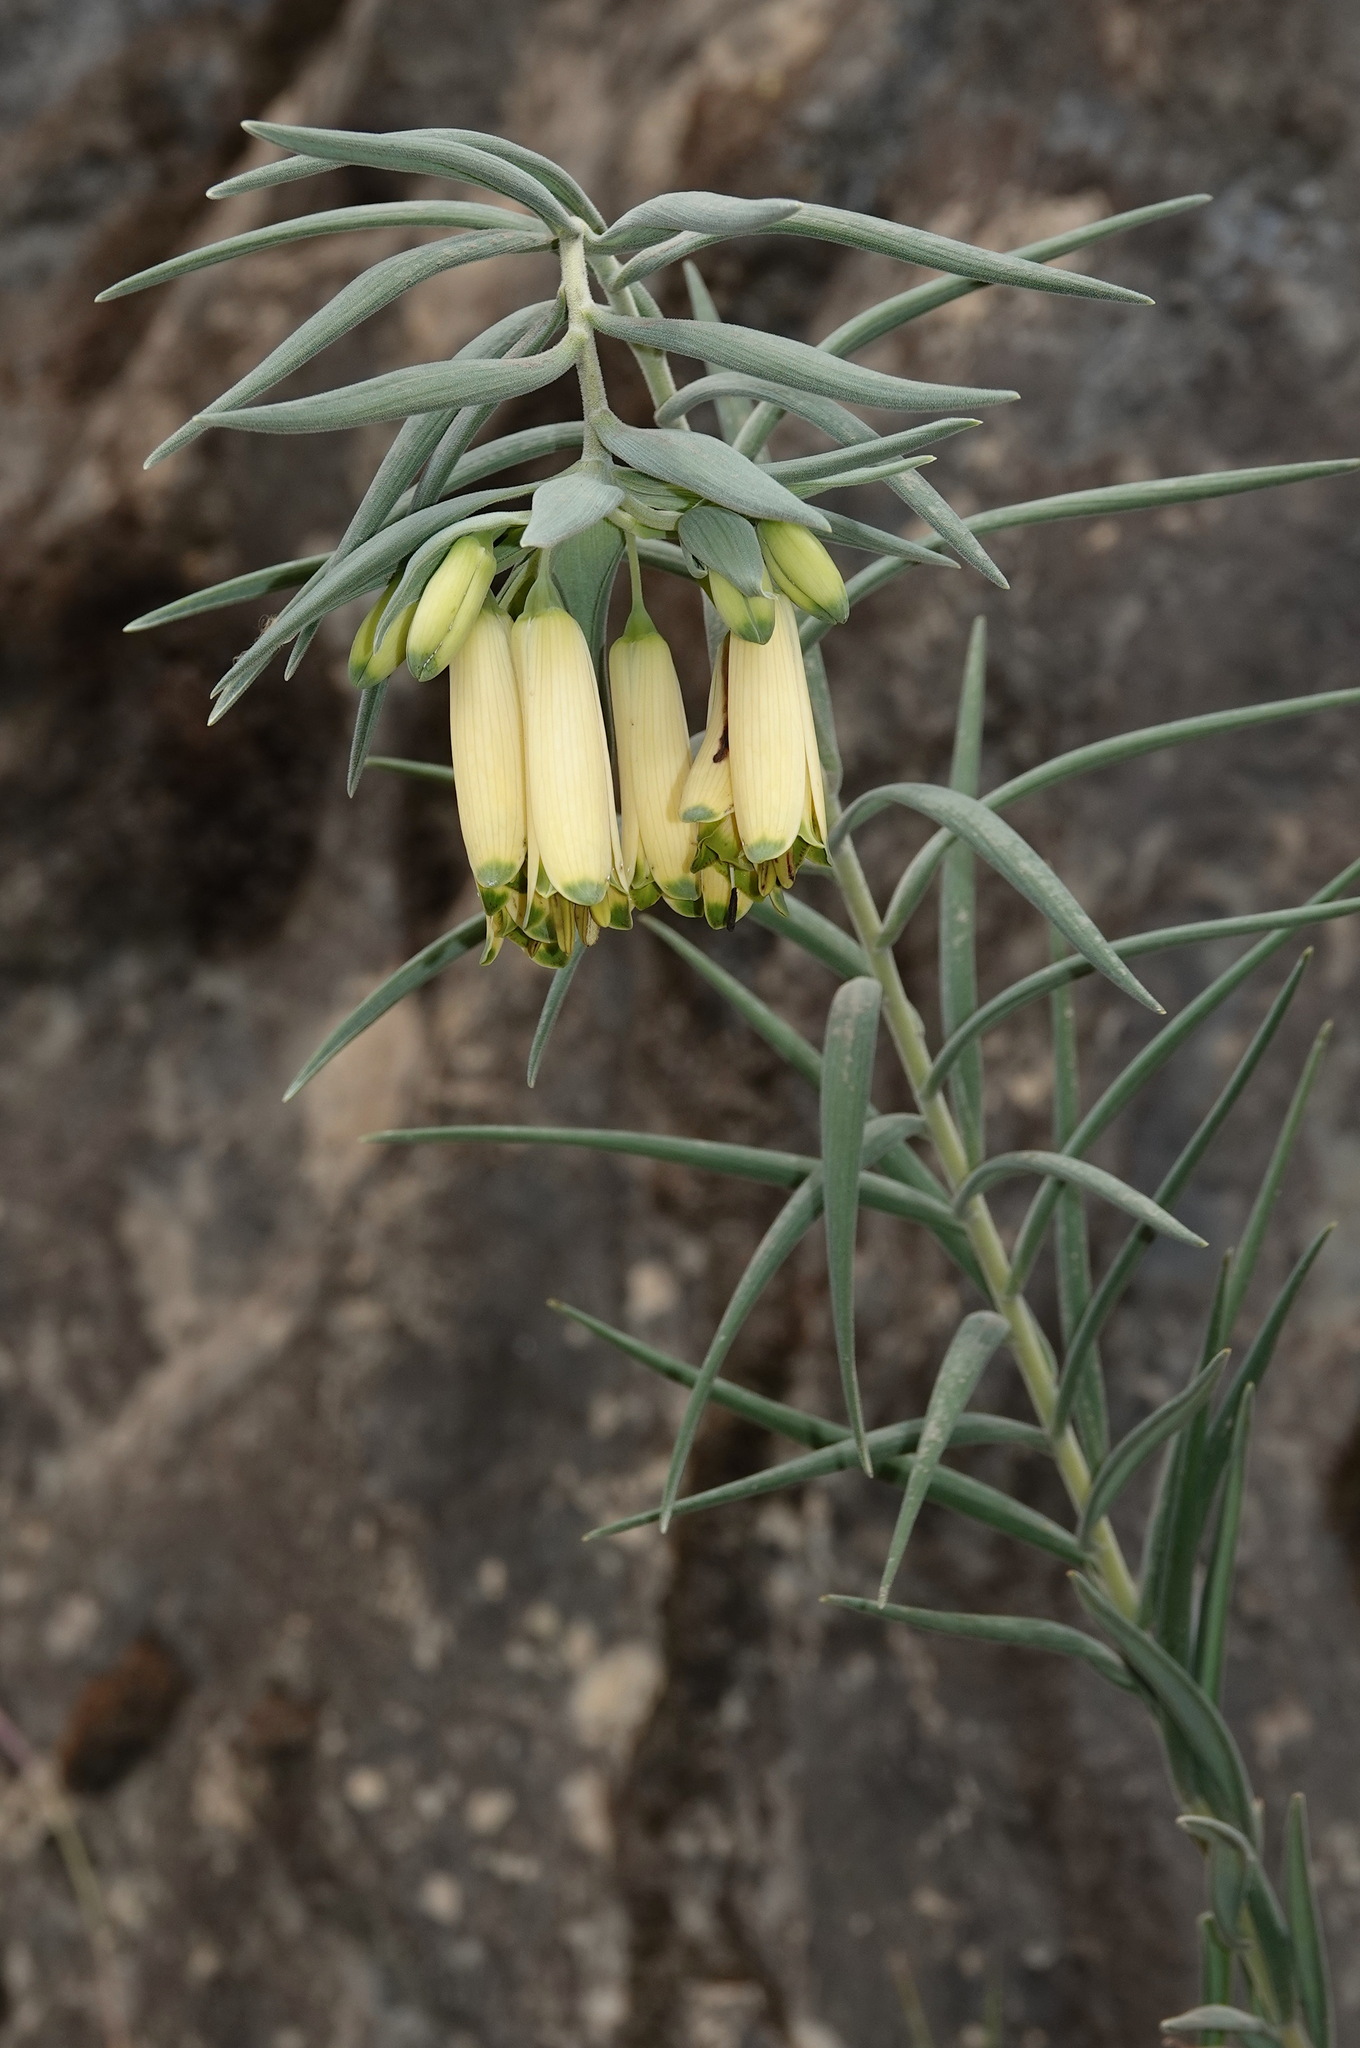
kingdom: Plantae
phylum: Tracheophyta
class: Liliopsida
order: Liliales
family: Alstroemeriaceae
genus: Bomarea
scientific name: Bomarea involucrosa
